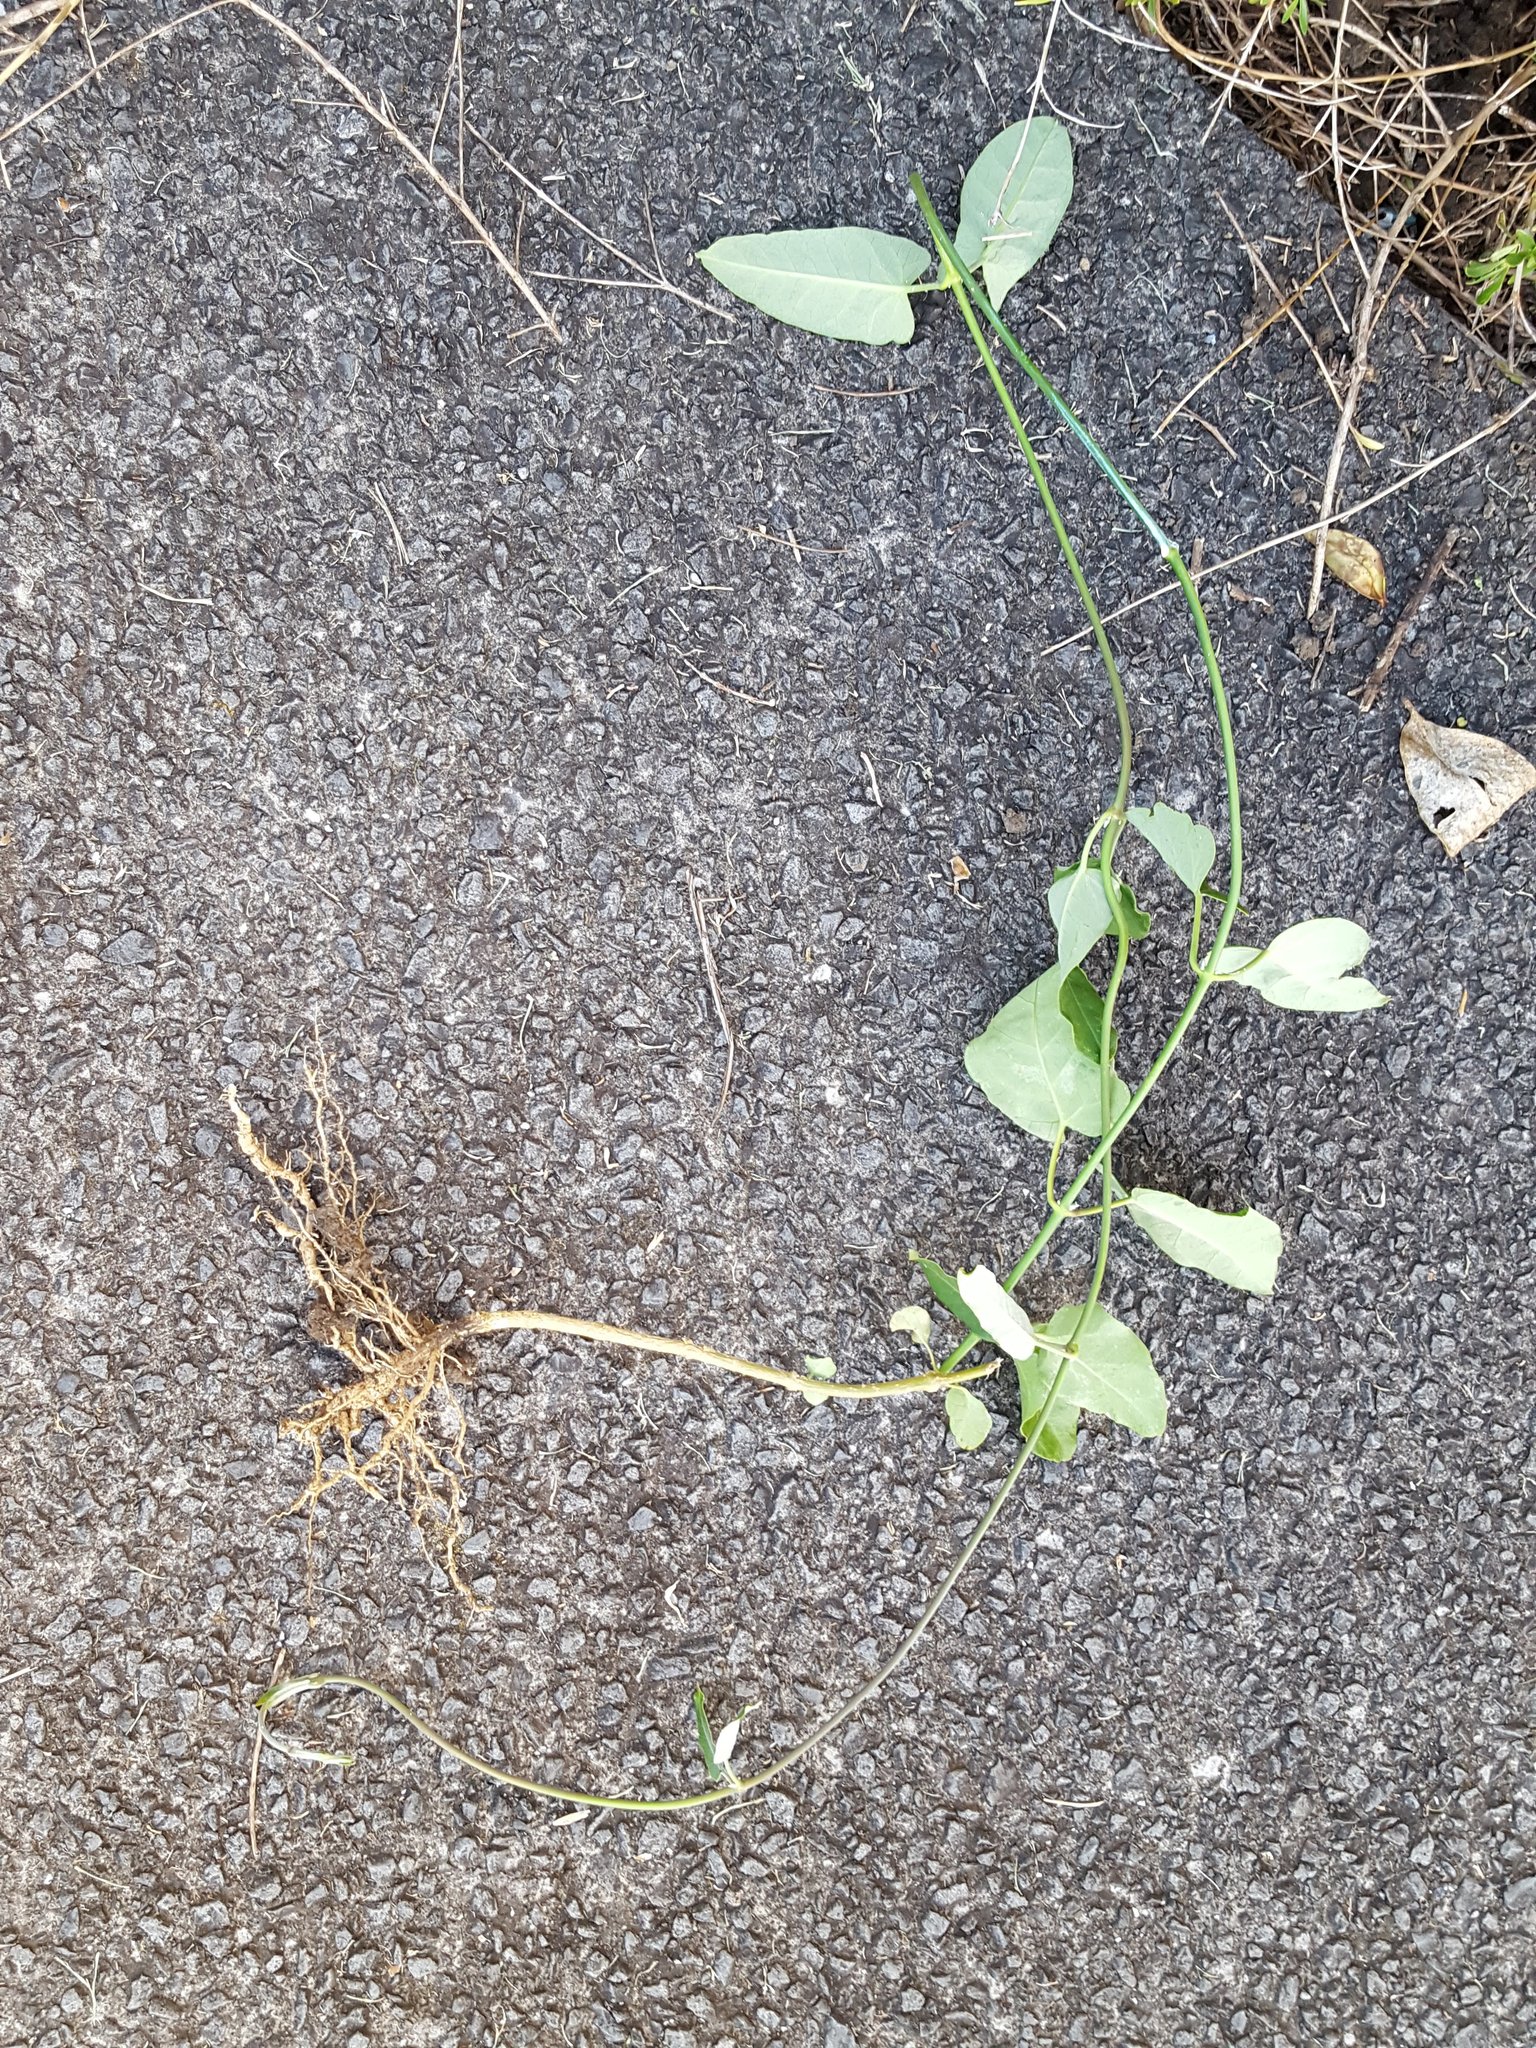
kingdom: Plantae
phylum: Tracheophyta
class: Magnoliopsida
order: Gentianales
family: Apocynaceae
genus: Araujia
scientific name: Araujia sericifera
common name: White bladderflower
